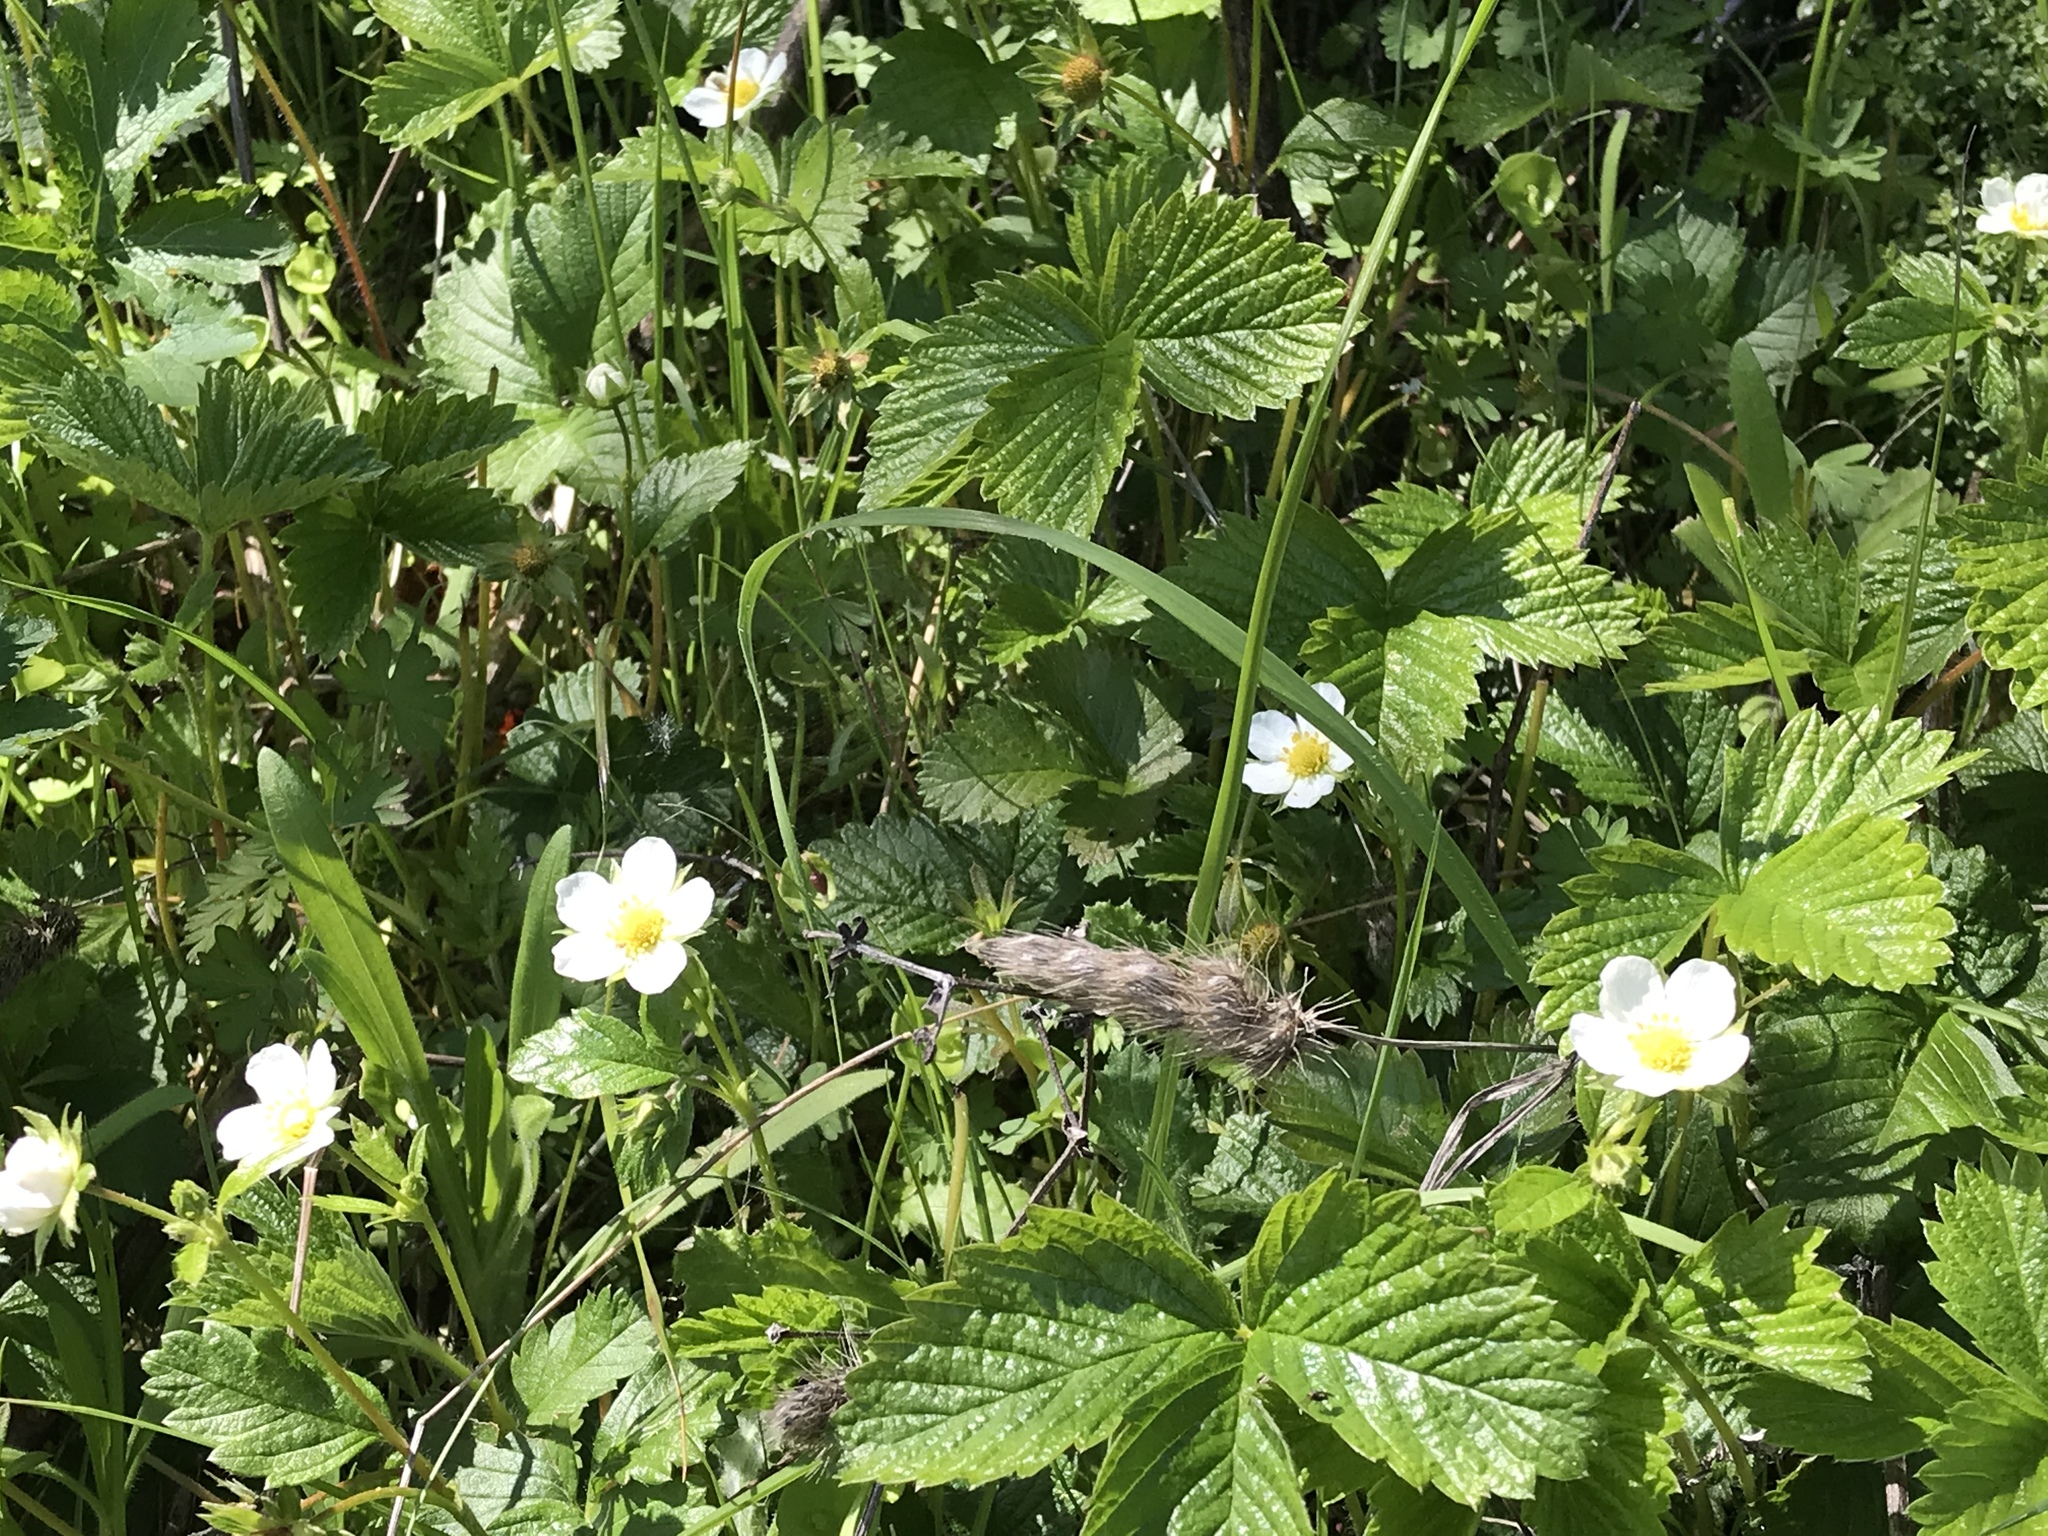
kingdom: Plantae
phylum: Tracheophyta
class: Magnoliopsida
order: Rosales
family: Rosaceae
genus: Fragaria
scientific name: Fragaria vesca
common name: Wild strawberry
